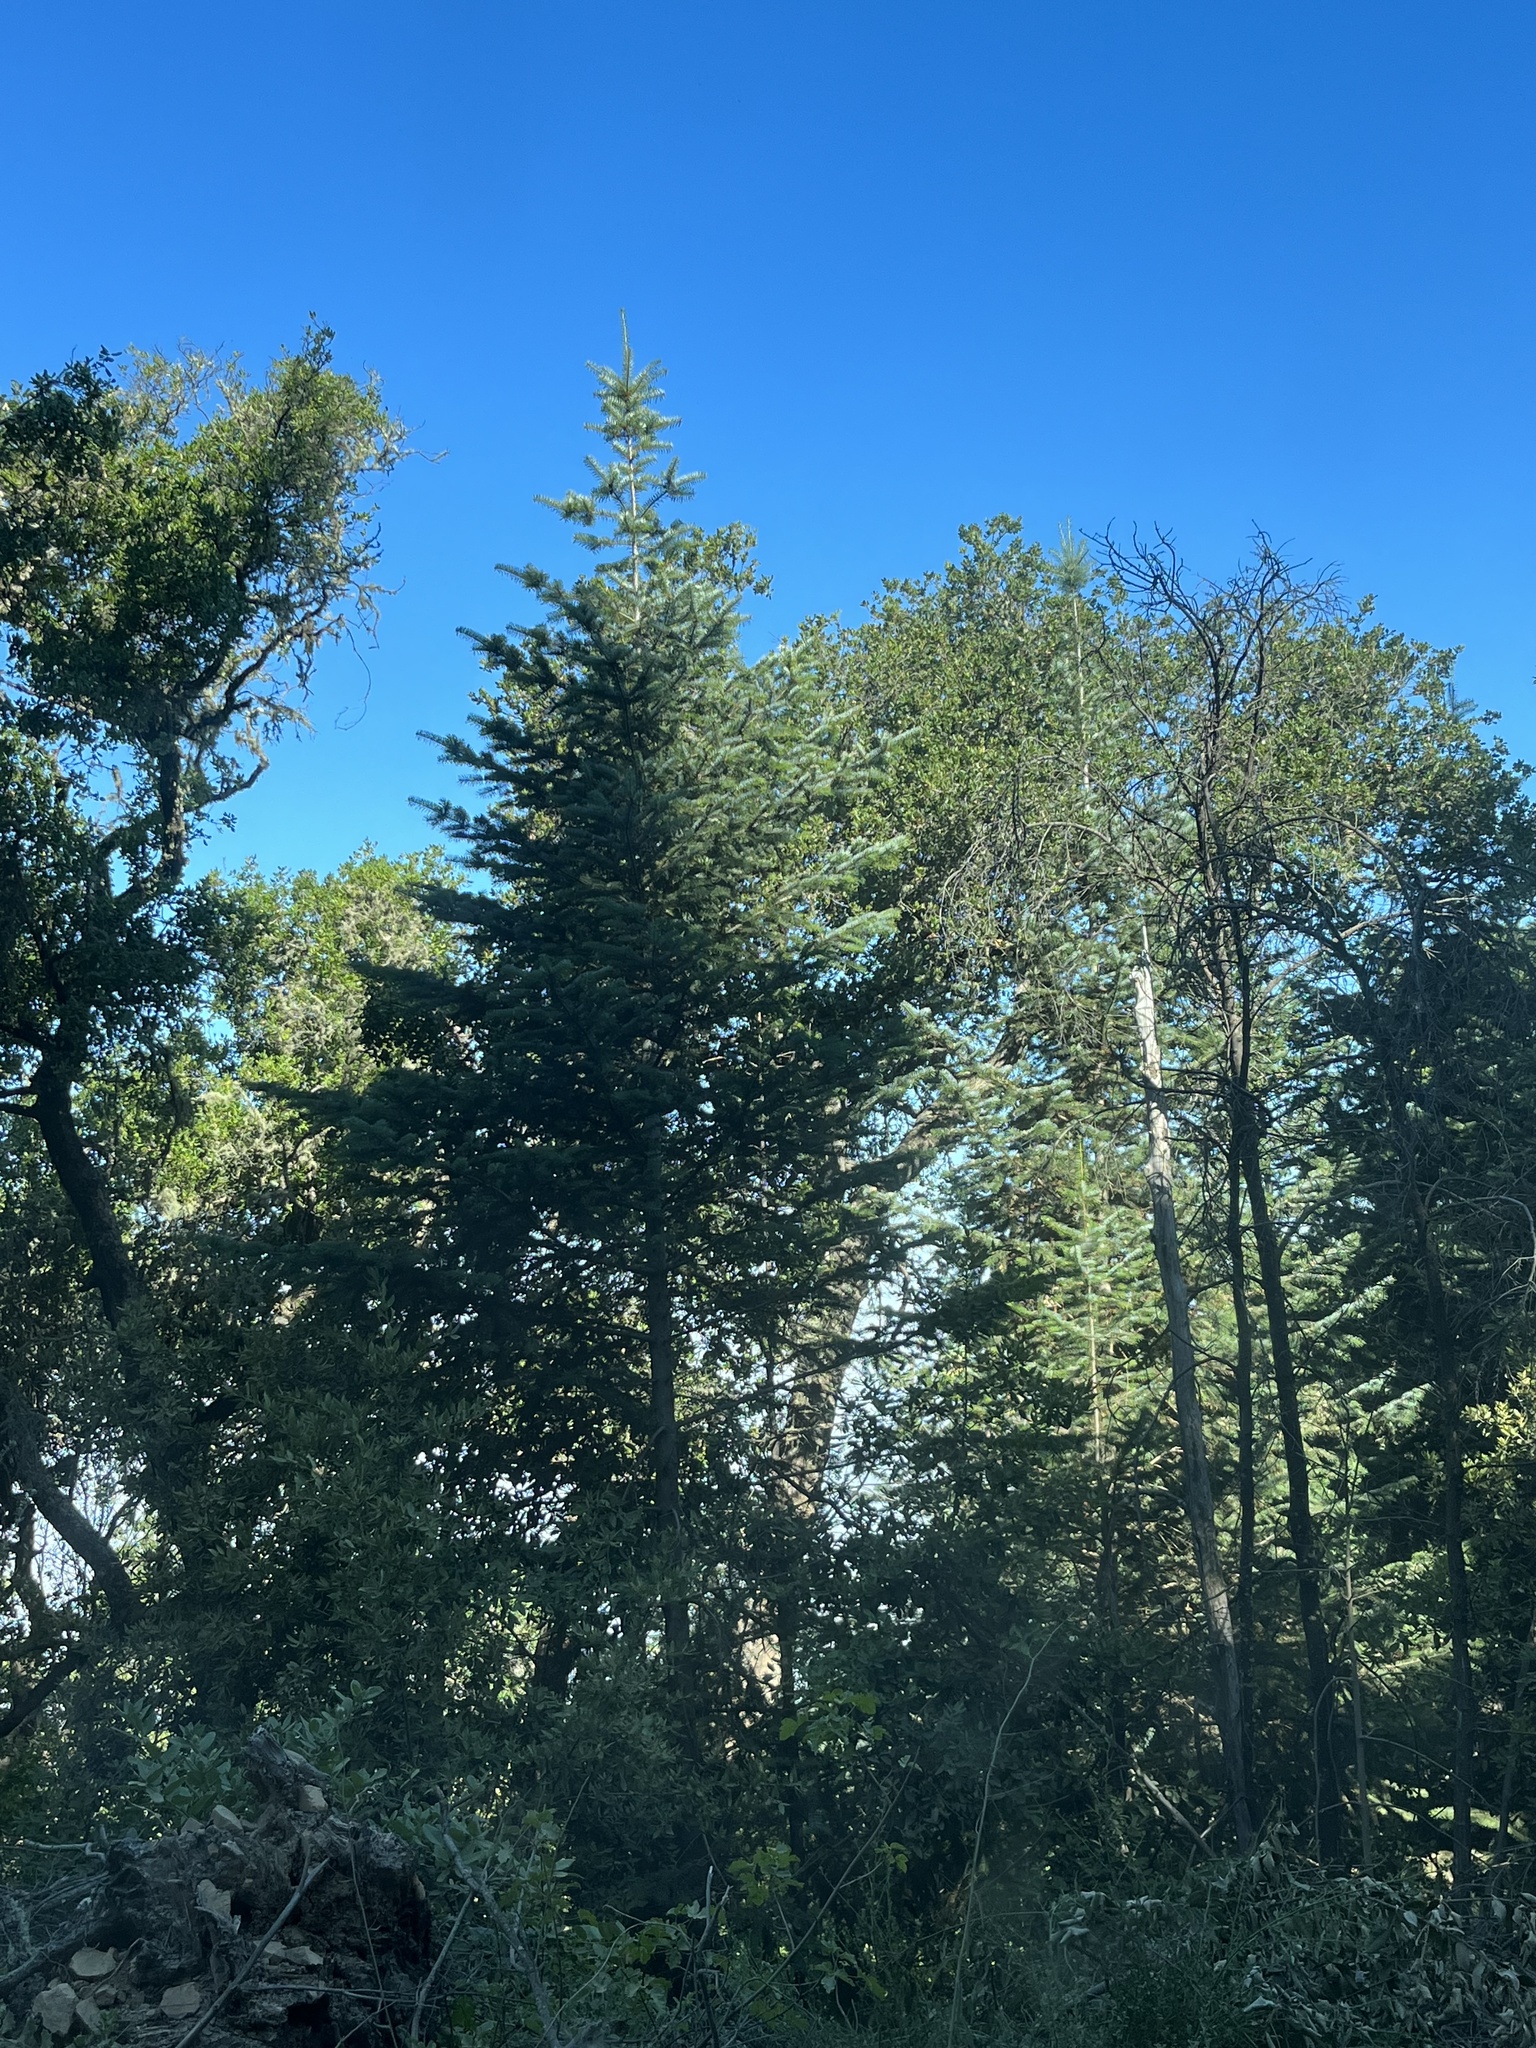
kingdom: Plantae
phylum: Tracheophyta
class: Pinopsida
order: Pinales
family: Pinaceae
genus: Abies
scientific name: Abies bracteata
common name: Bristlecone fir
